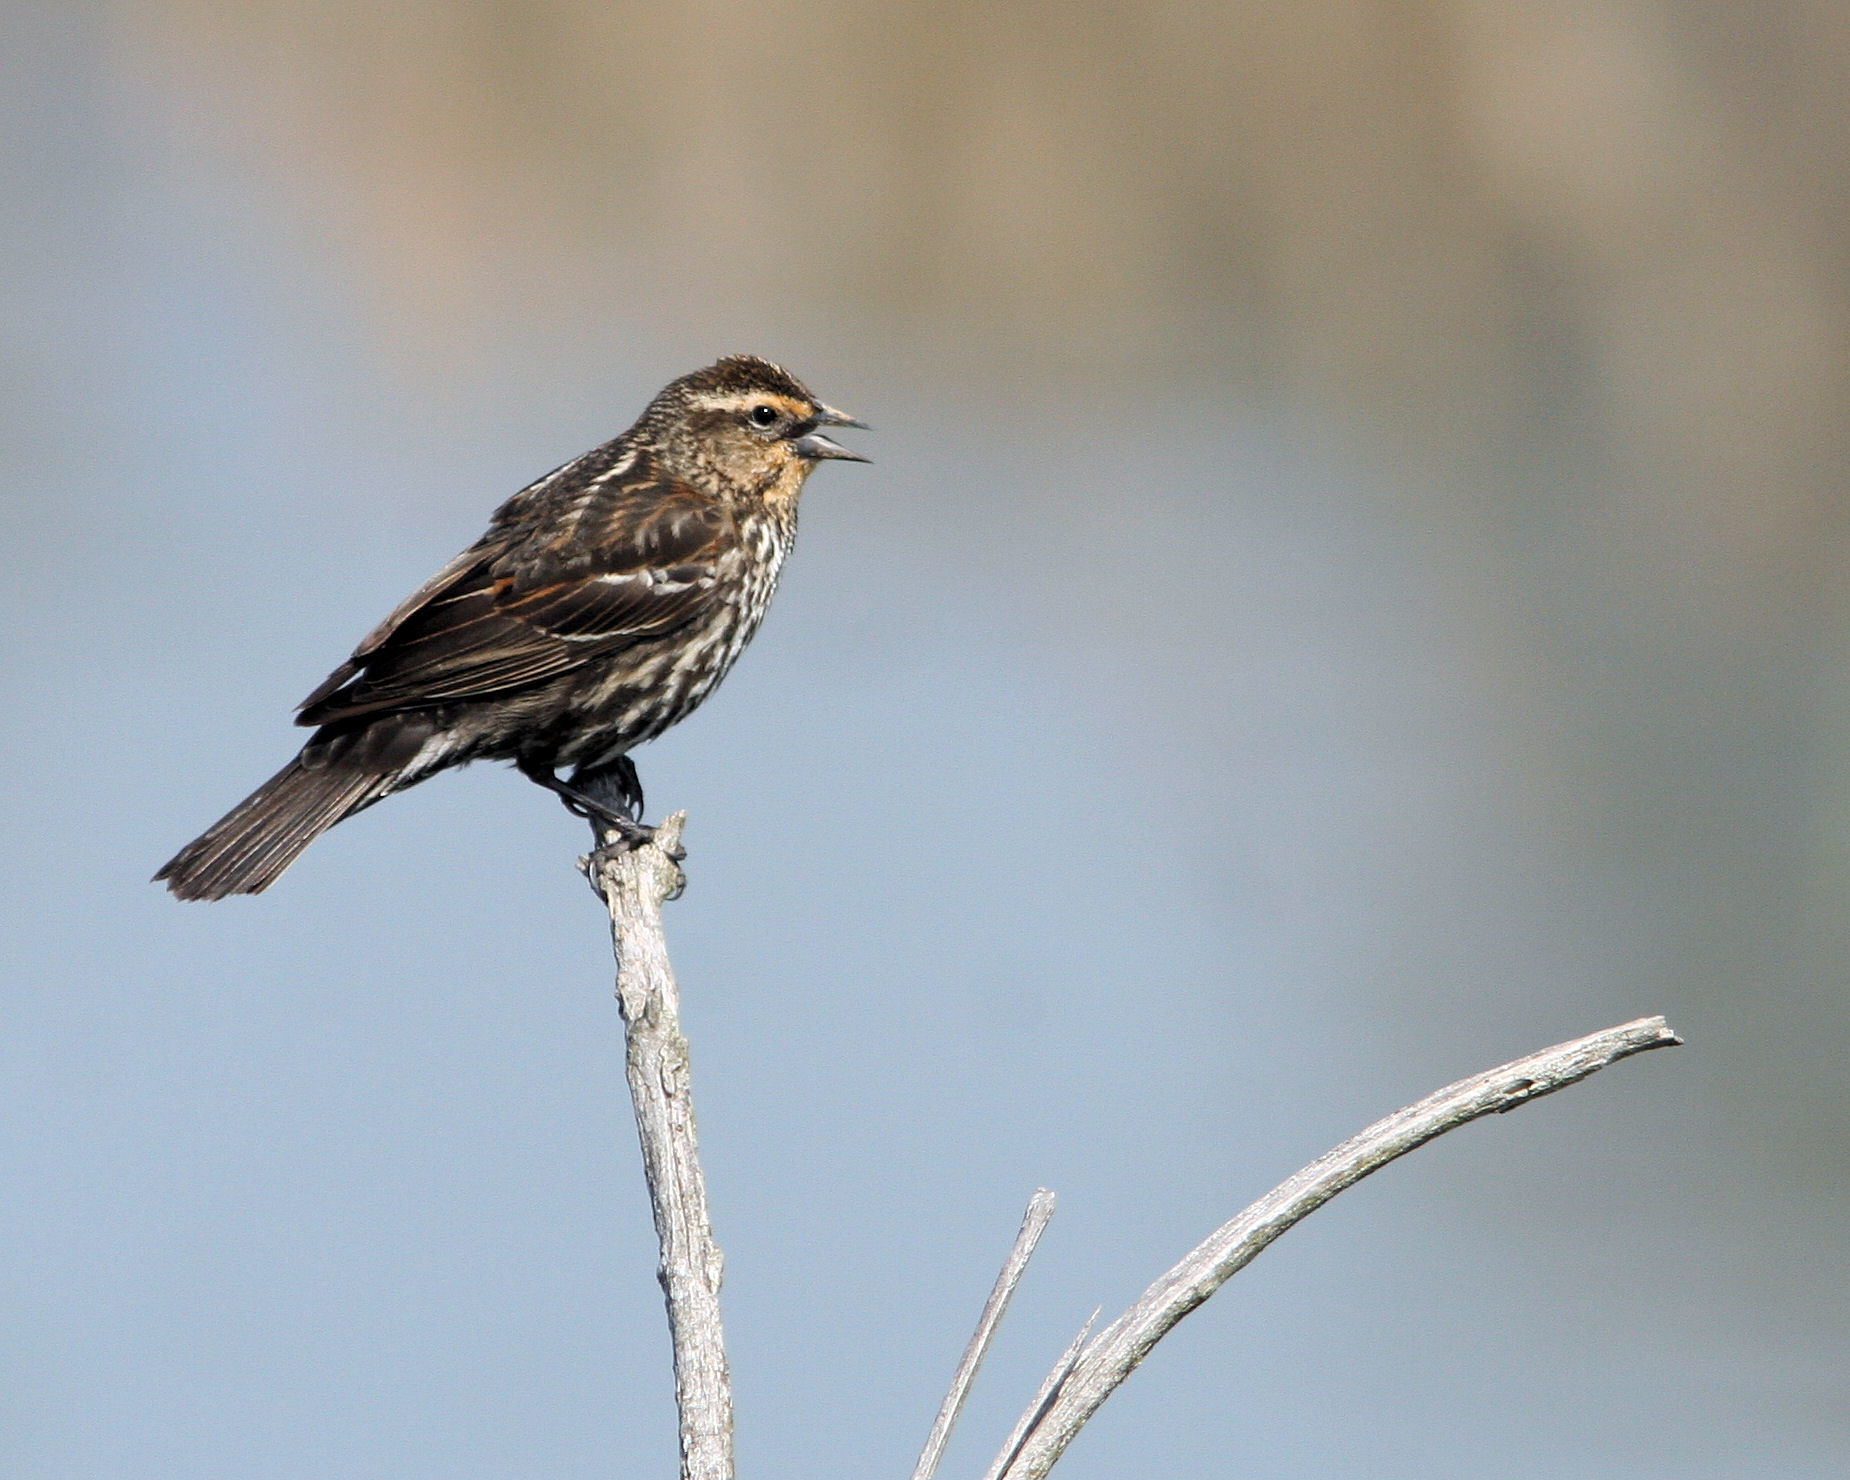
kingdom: Animalia
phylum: Chordata
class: Aves
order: Passeriformes
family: Icteridae
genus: Agelaius
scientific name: Agelaius phoeniceus
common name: Red-winged blackbird
